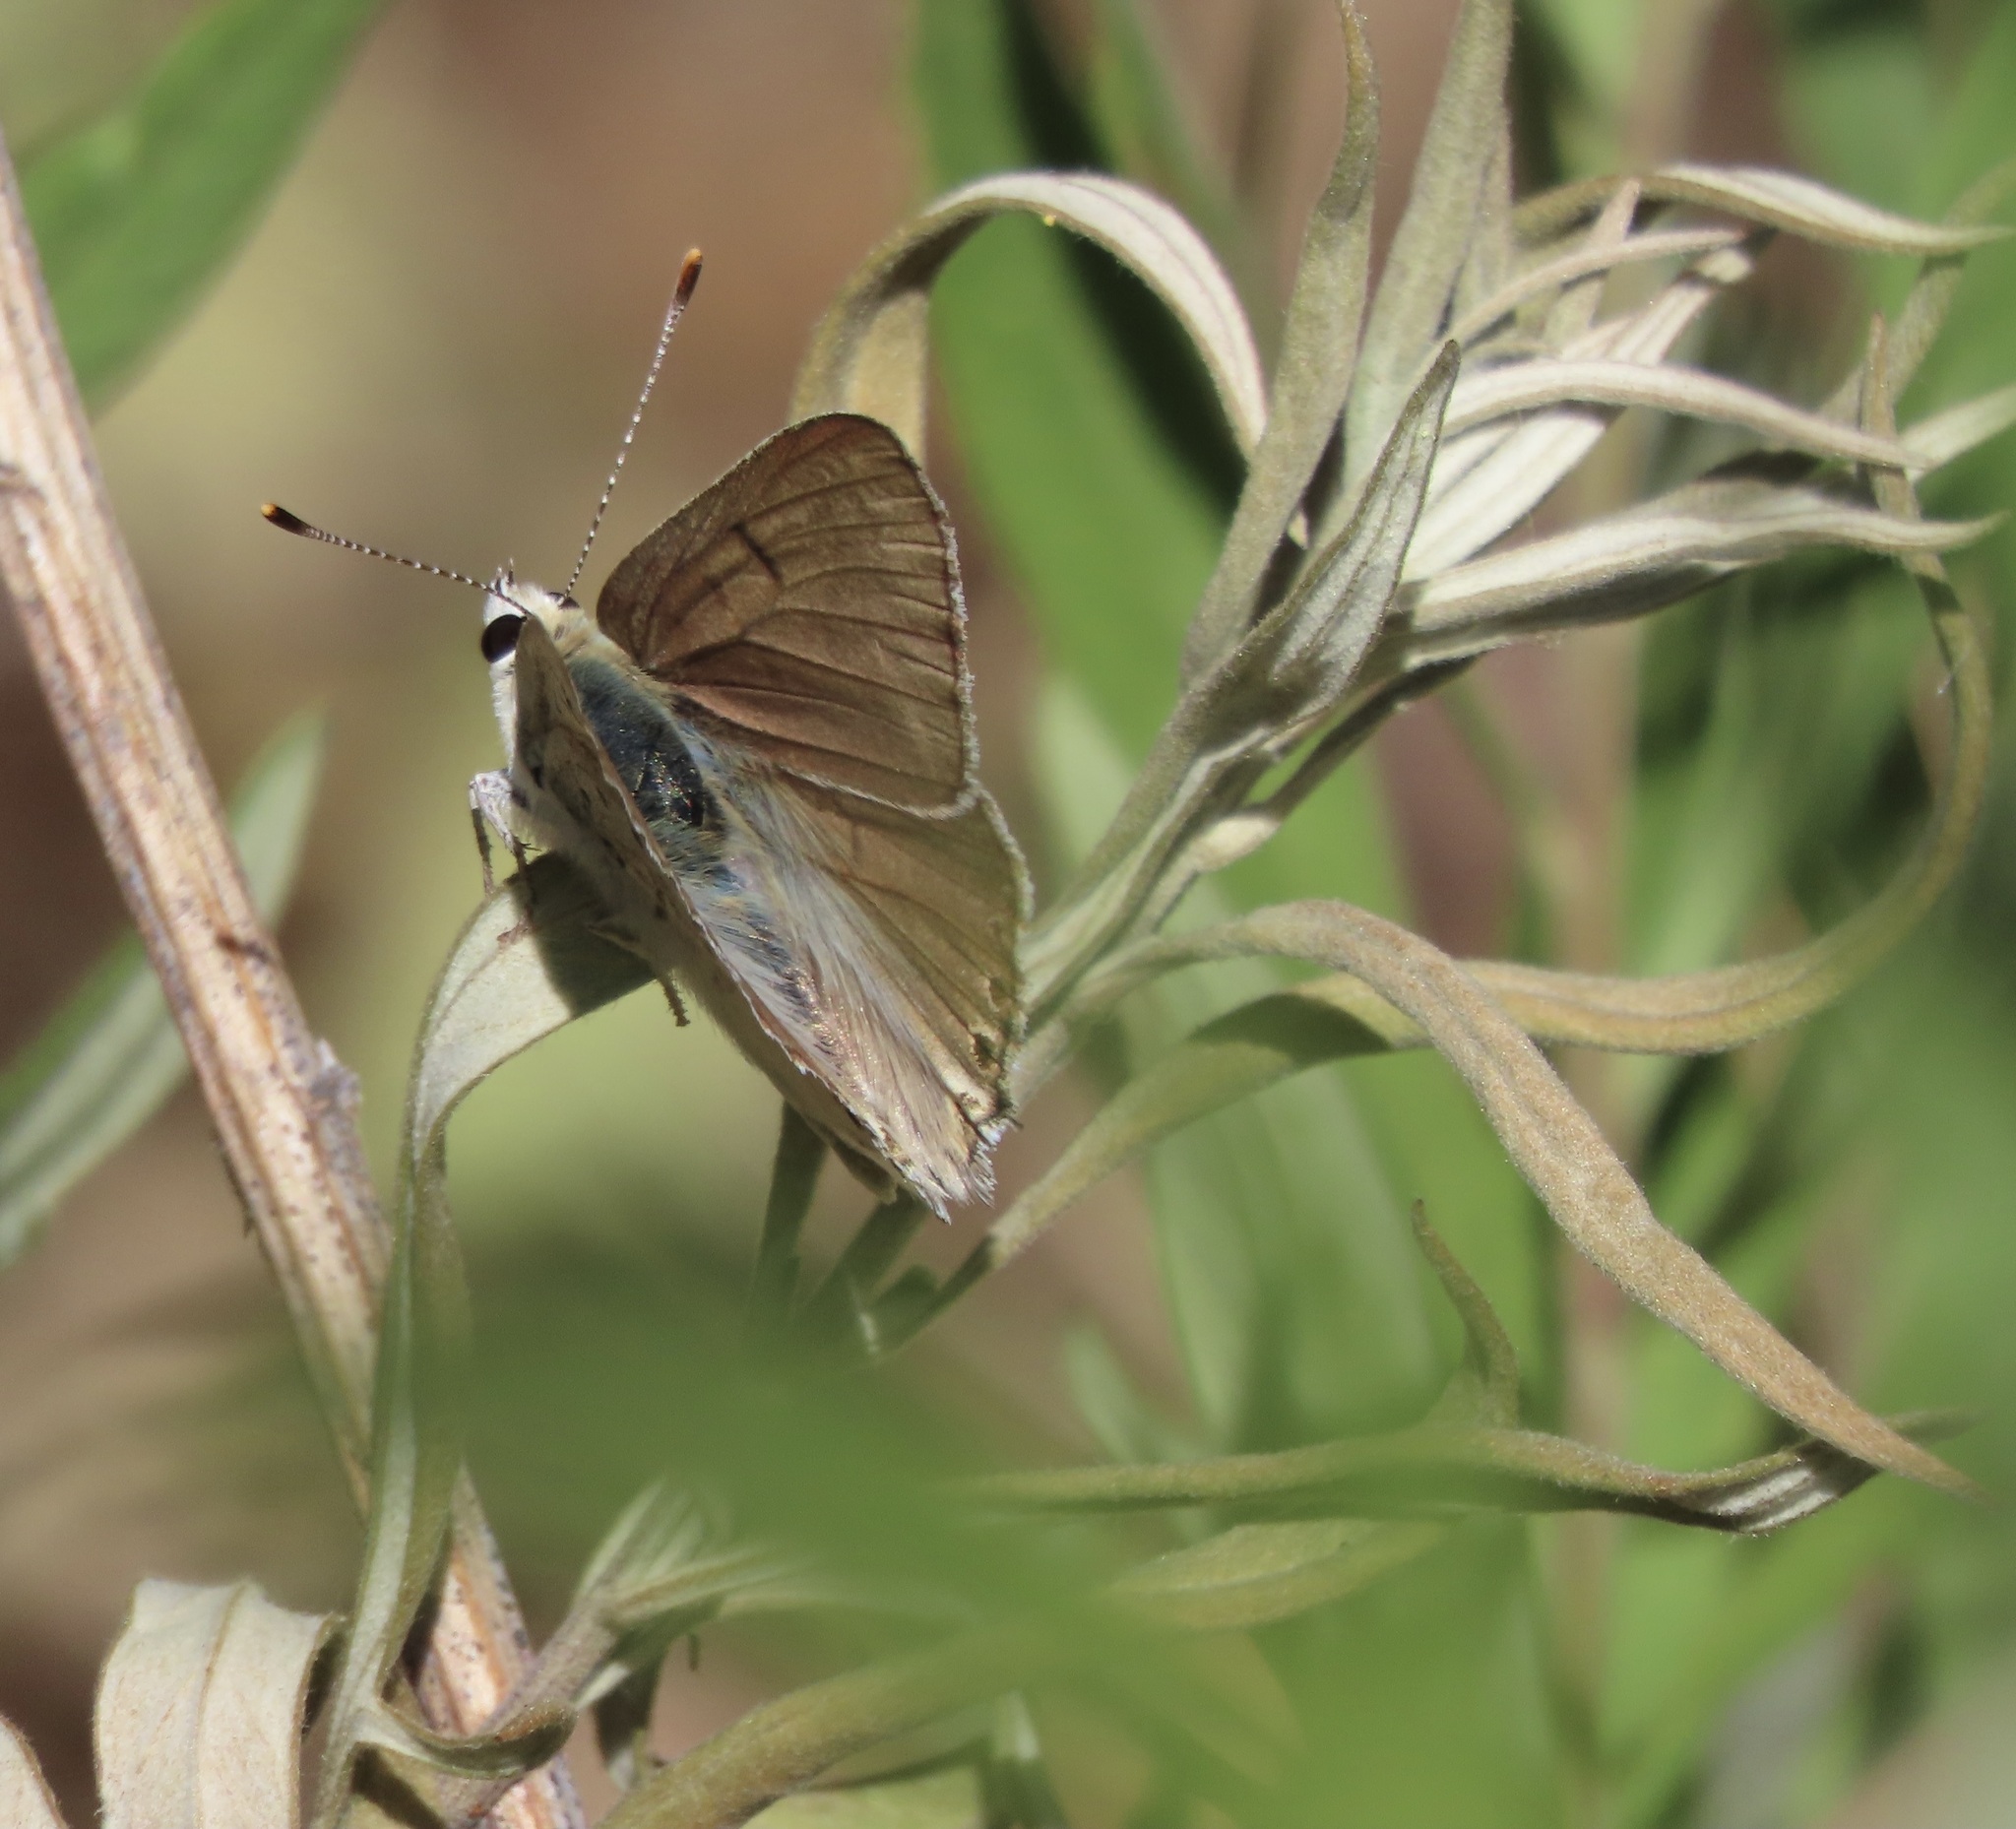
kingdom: Animalia
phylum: Arthropoda
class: Insecta
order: Lepidoptera
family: Lycaenidae
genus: Tharsalea
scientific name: Tharsalea xanthoides
